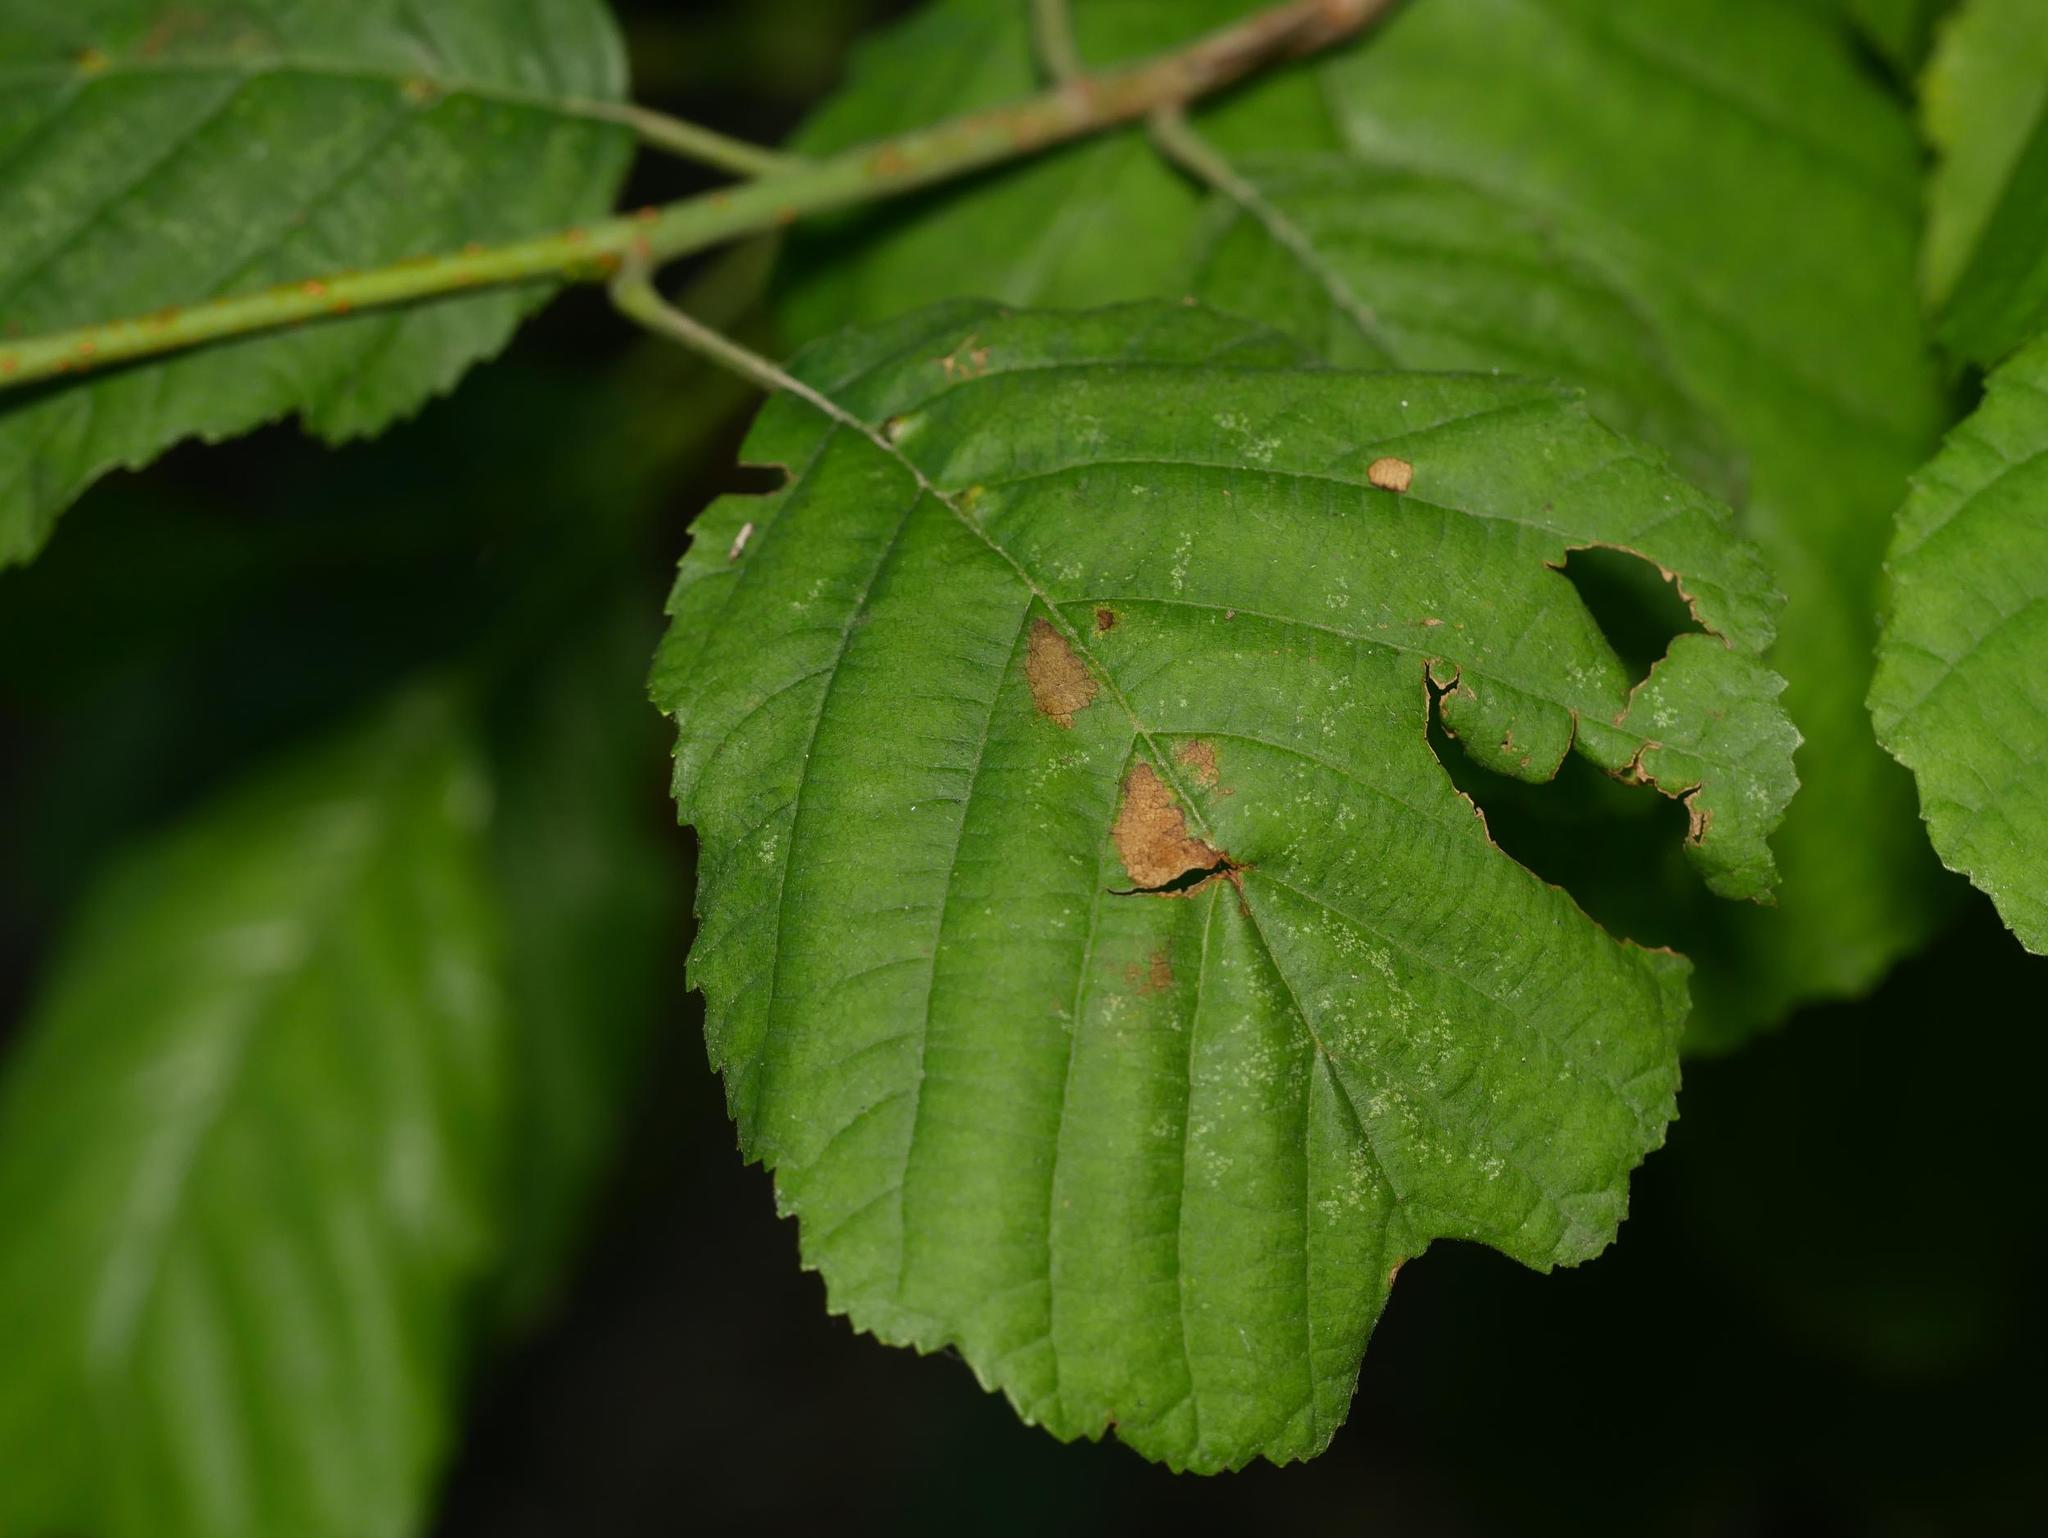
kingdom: Plantae
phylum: Tracheophyta
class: Magnoliopsida
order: Fagales
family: Betulaceae
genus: Alnus
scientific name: Alnus glutinosa
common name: Black alder
